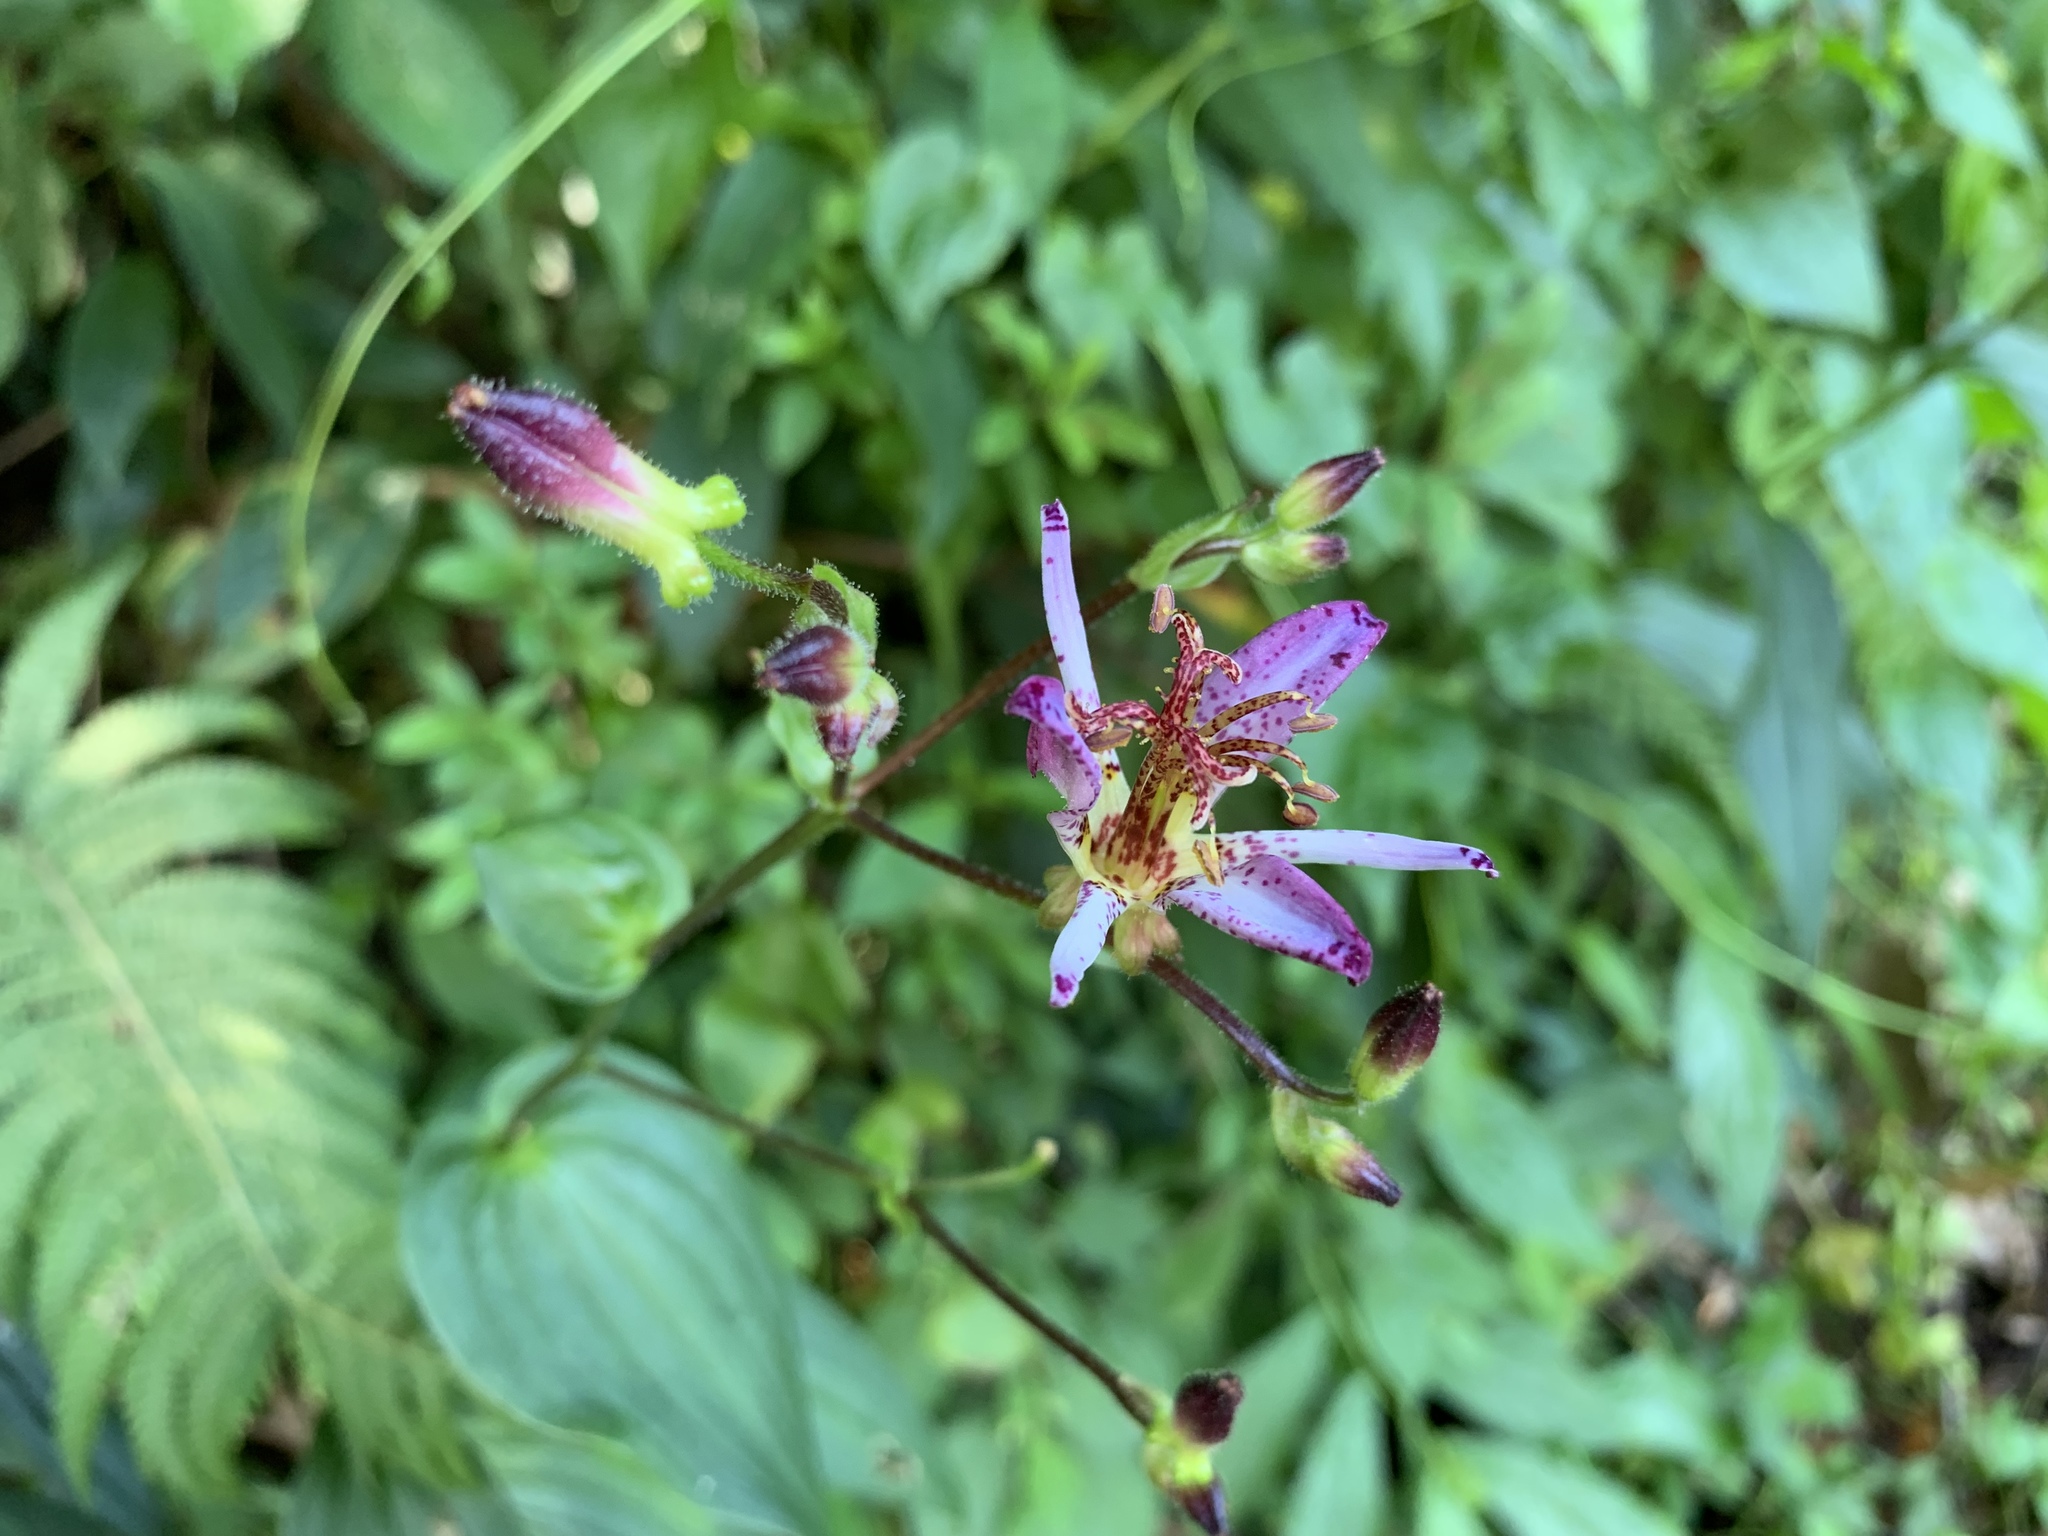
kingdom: Plantae
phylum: Tracheophyta
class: Liliopsida
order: Liliales
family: Liliaceae
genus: Tricyrtis
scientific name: Tricyrtis formosana
